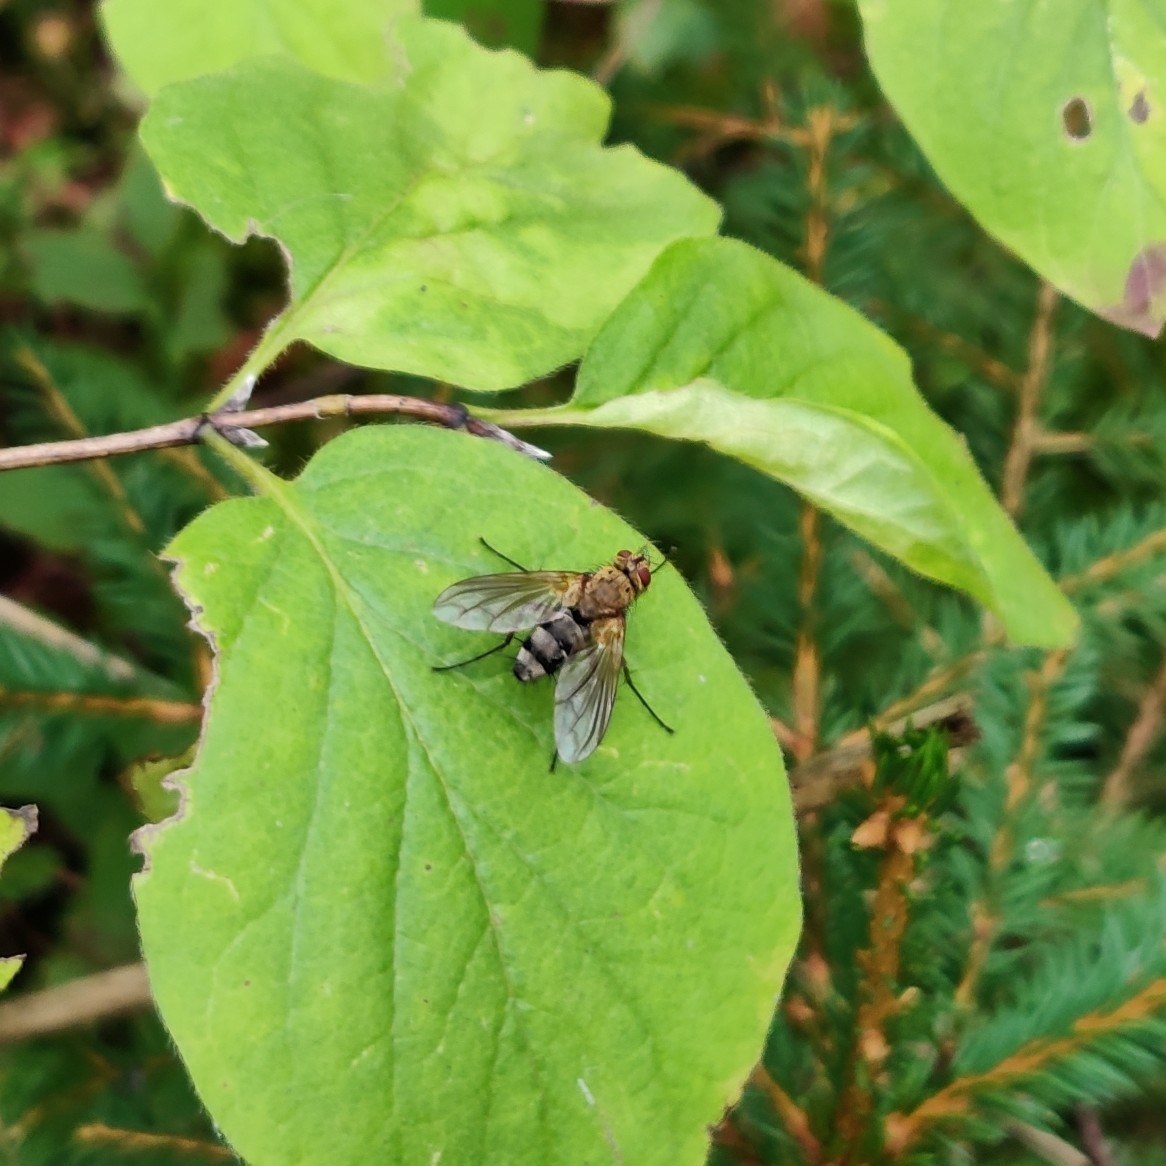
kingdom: Animalia
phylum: Arthropoda
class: Insecta
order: Diptera
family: Tachinidae
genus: Dexiosoma
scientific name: Dexiosoma caninum
